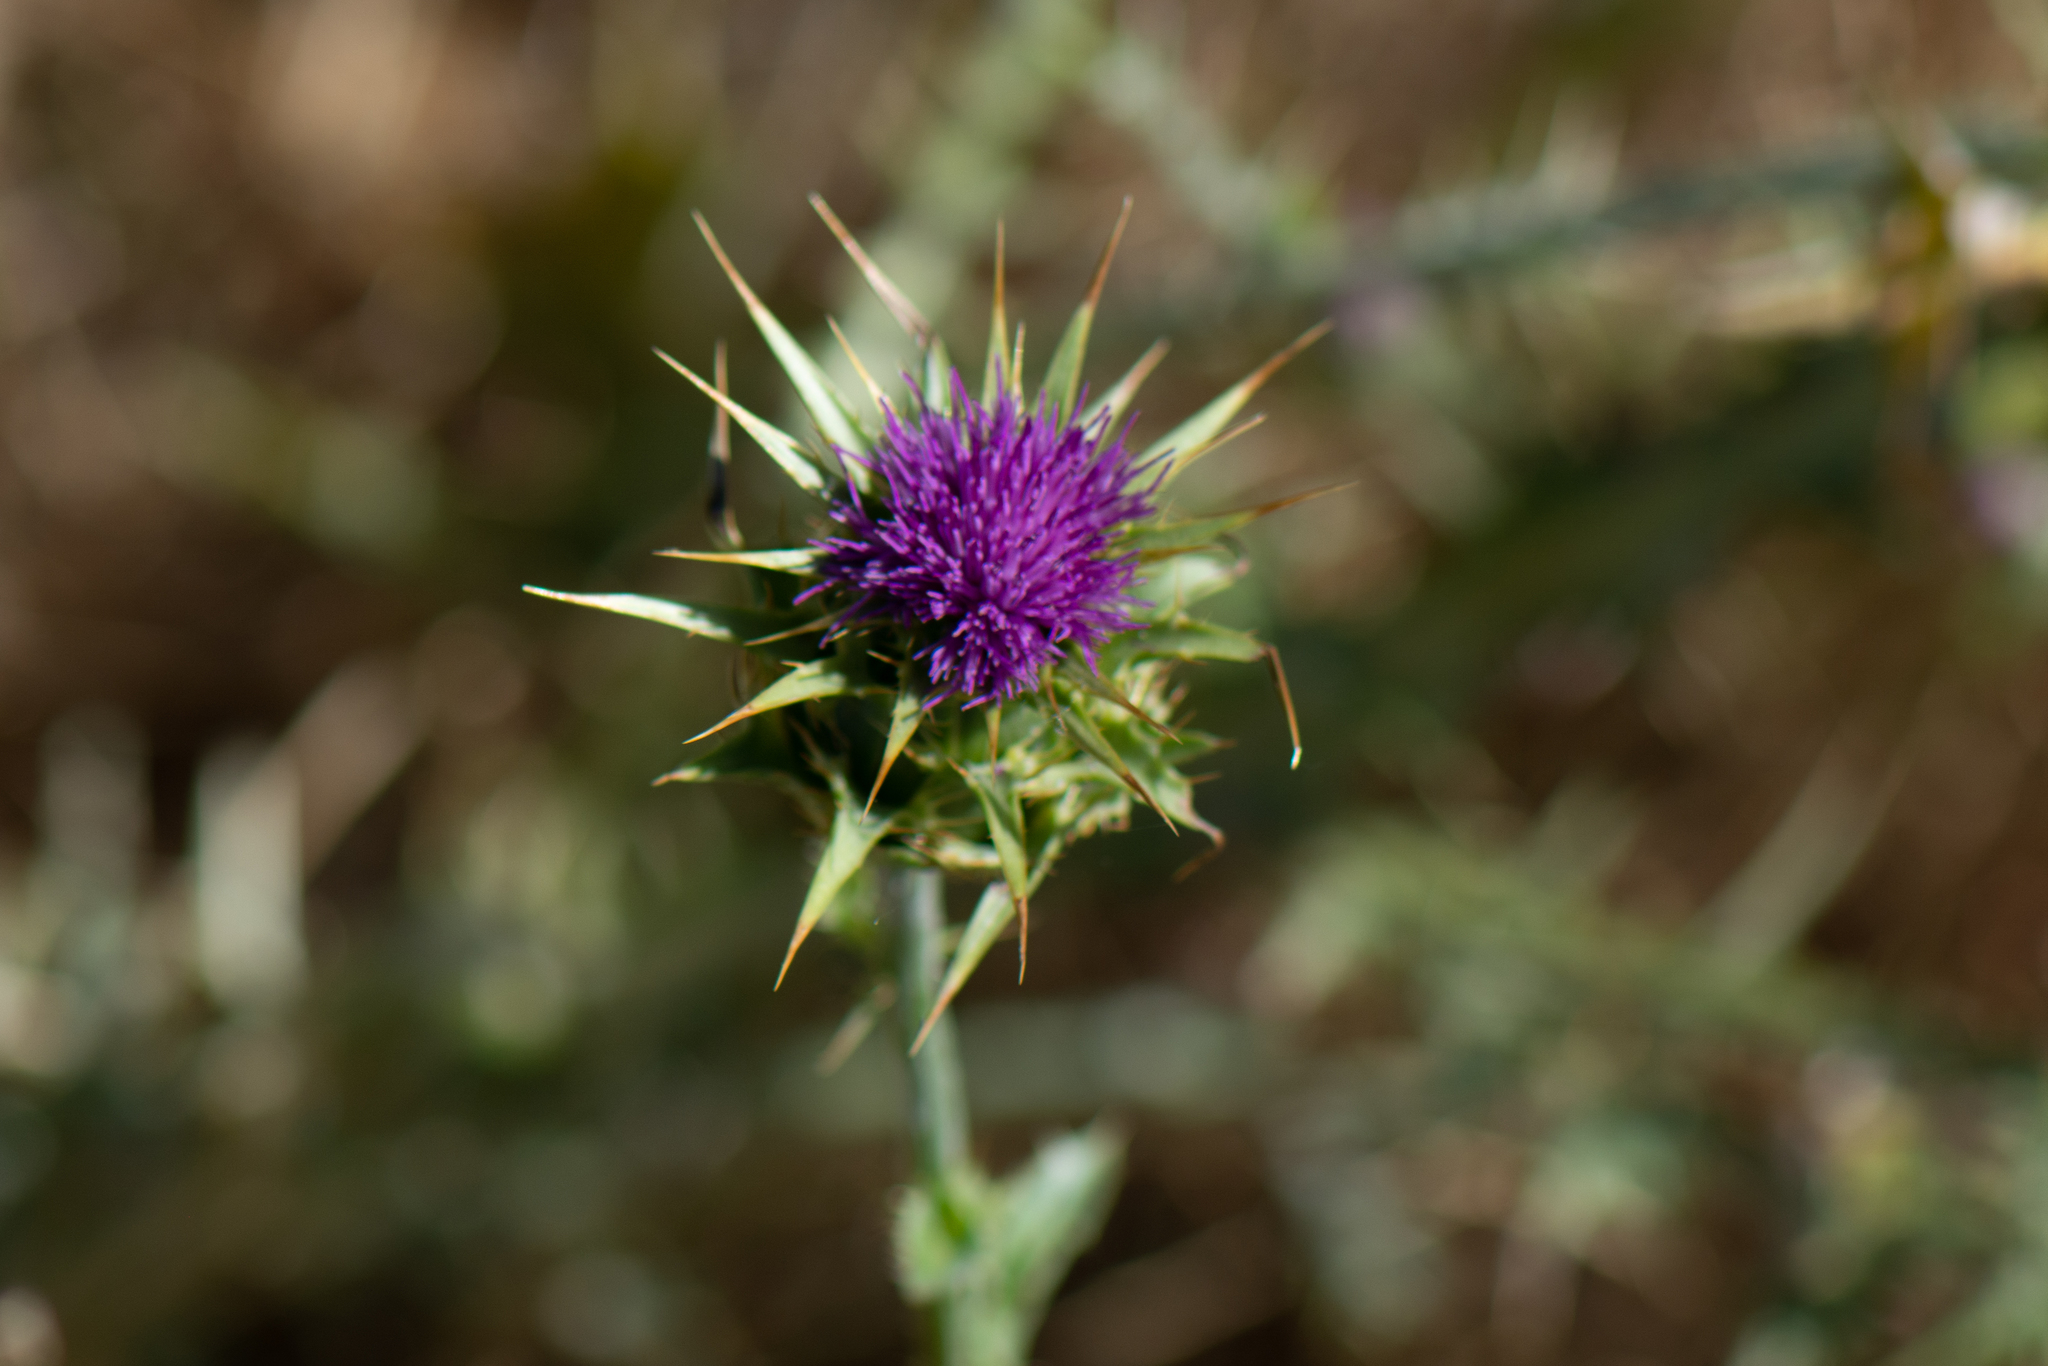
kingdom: Plantae
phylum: Tracheophyta
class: Magnoliopsida
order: Asterales
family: Asteraceae
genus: Silybum
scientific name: Silybum marianum
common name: Milk thistle
